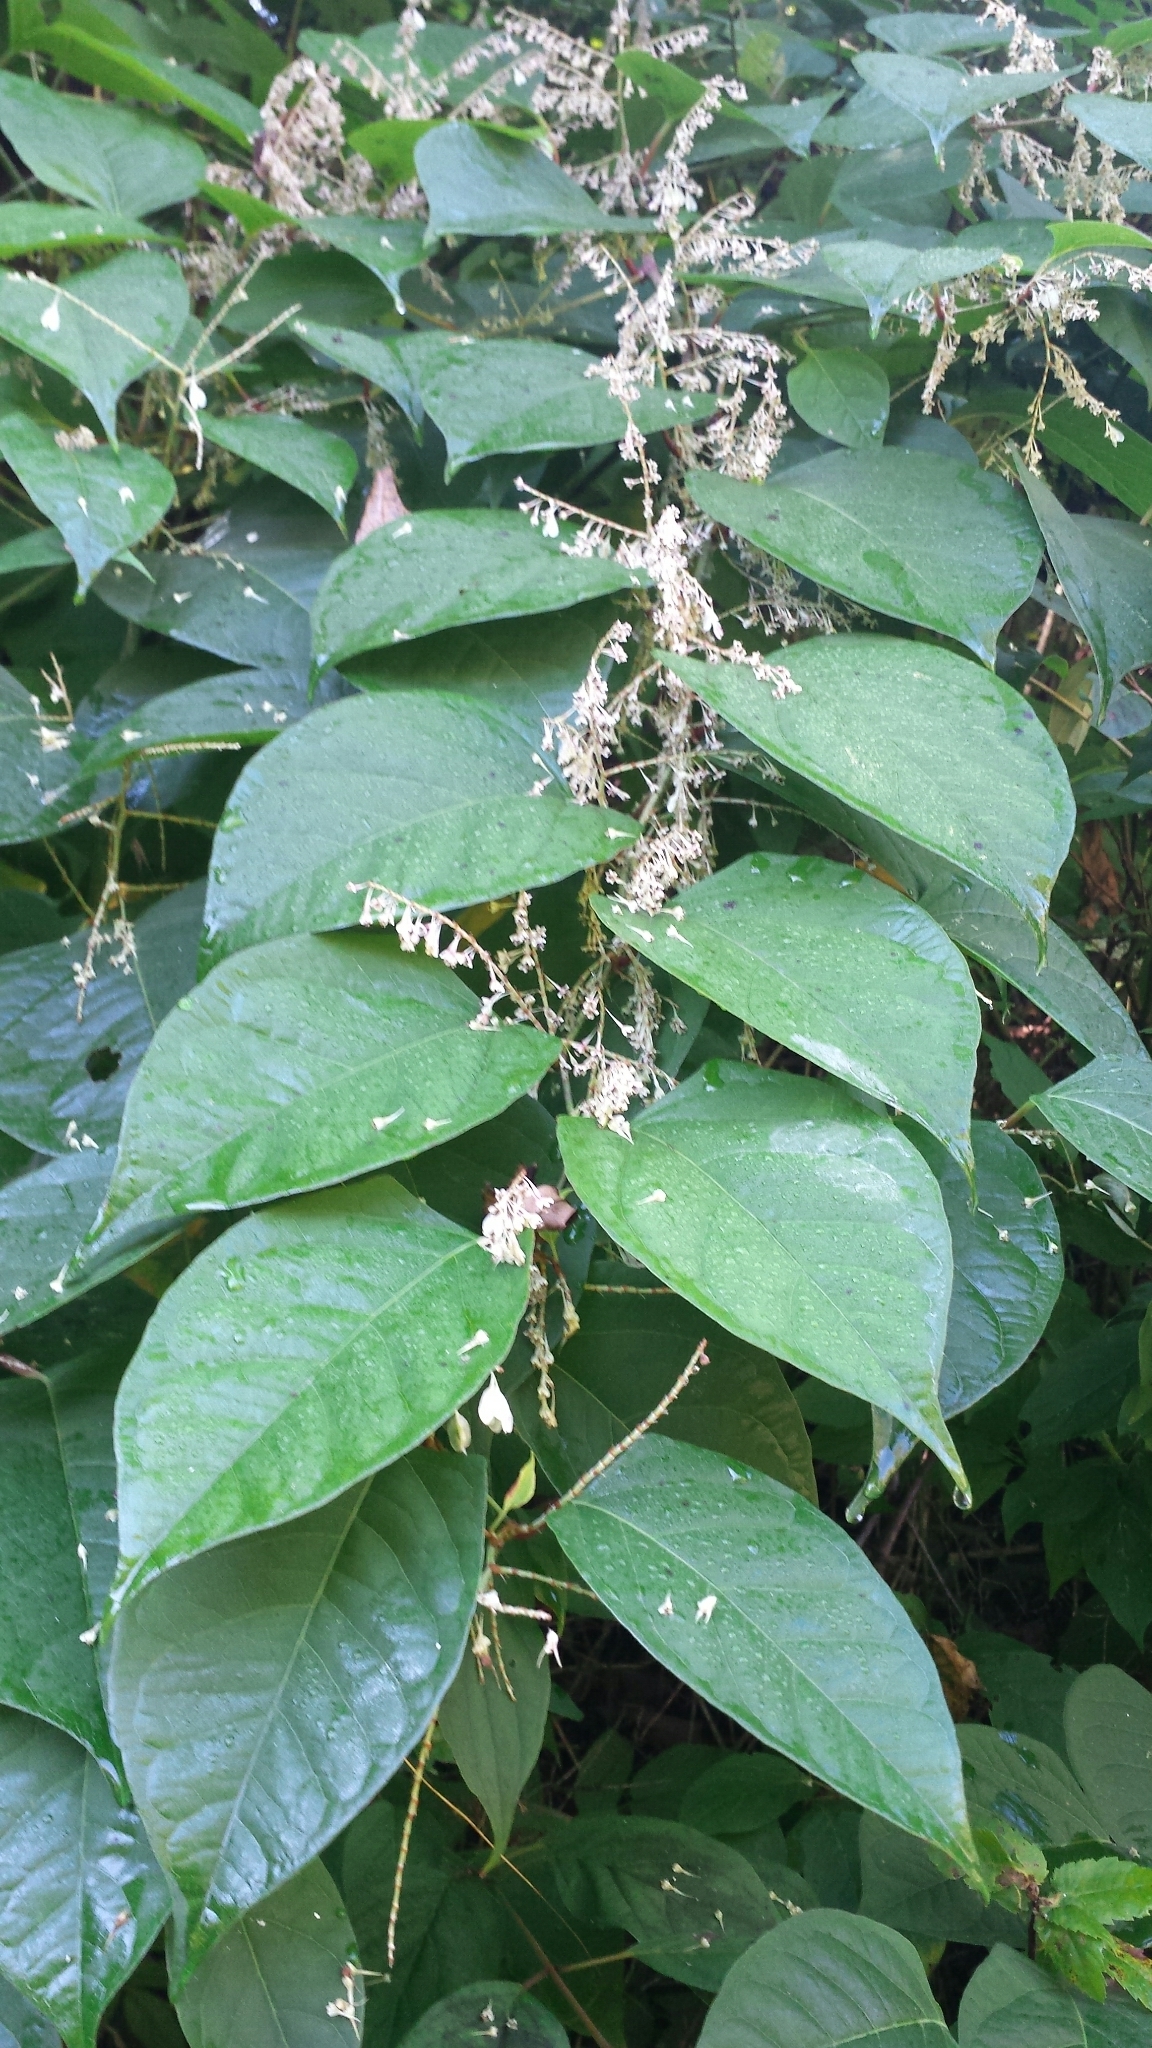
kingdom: Plantae
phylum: Tracheophyta
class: Magnoliopsida
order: Caryophyllales
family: Polygonaceae
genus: Reynoutria
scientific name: Reynoutria japonica
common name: Japanese knotweed
